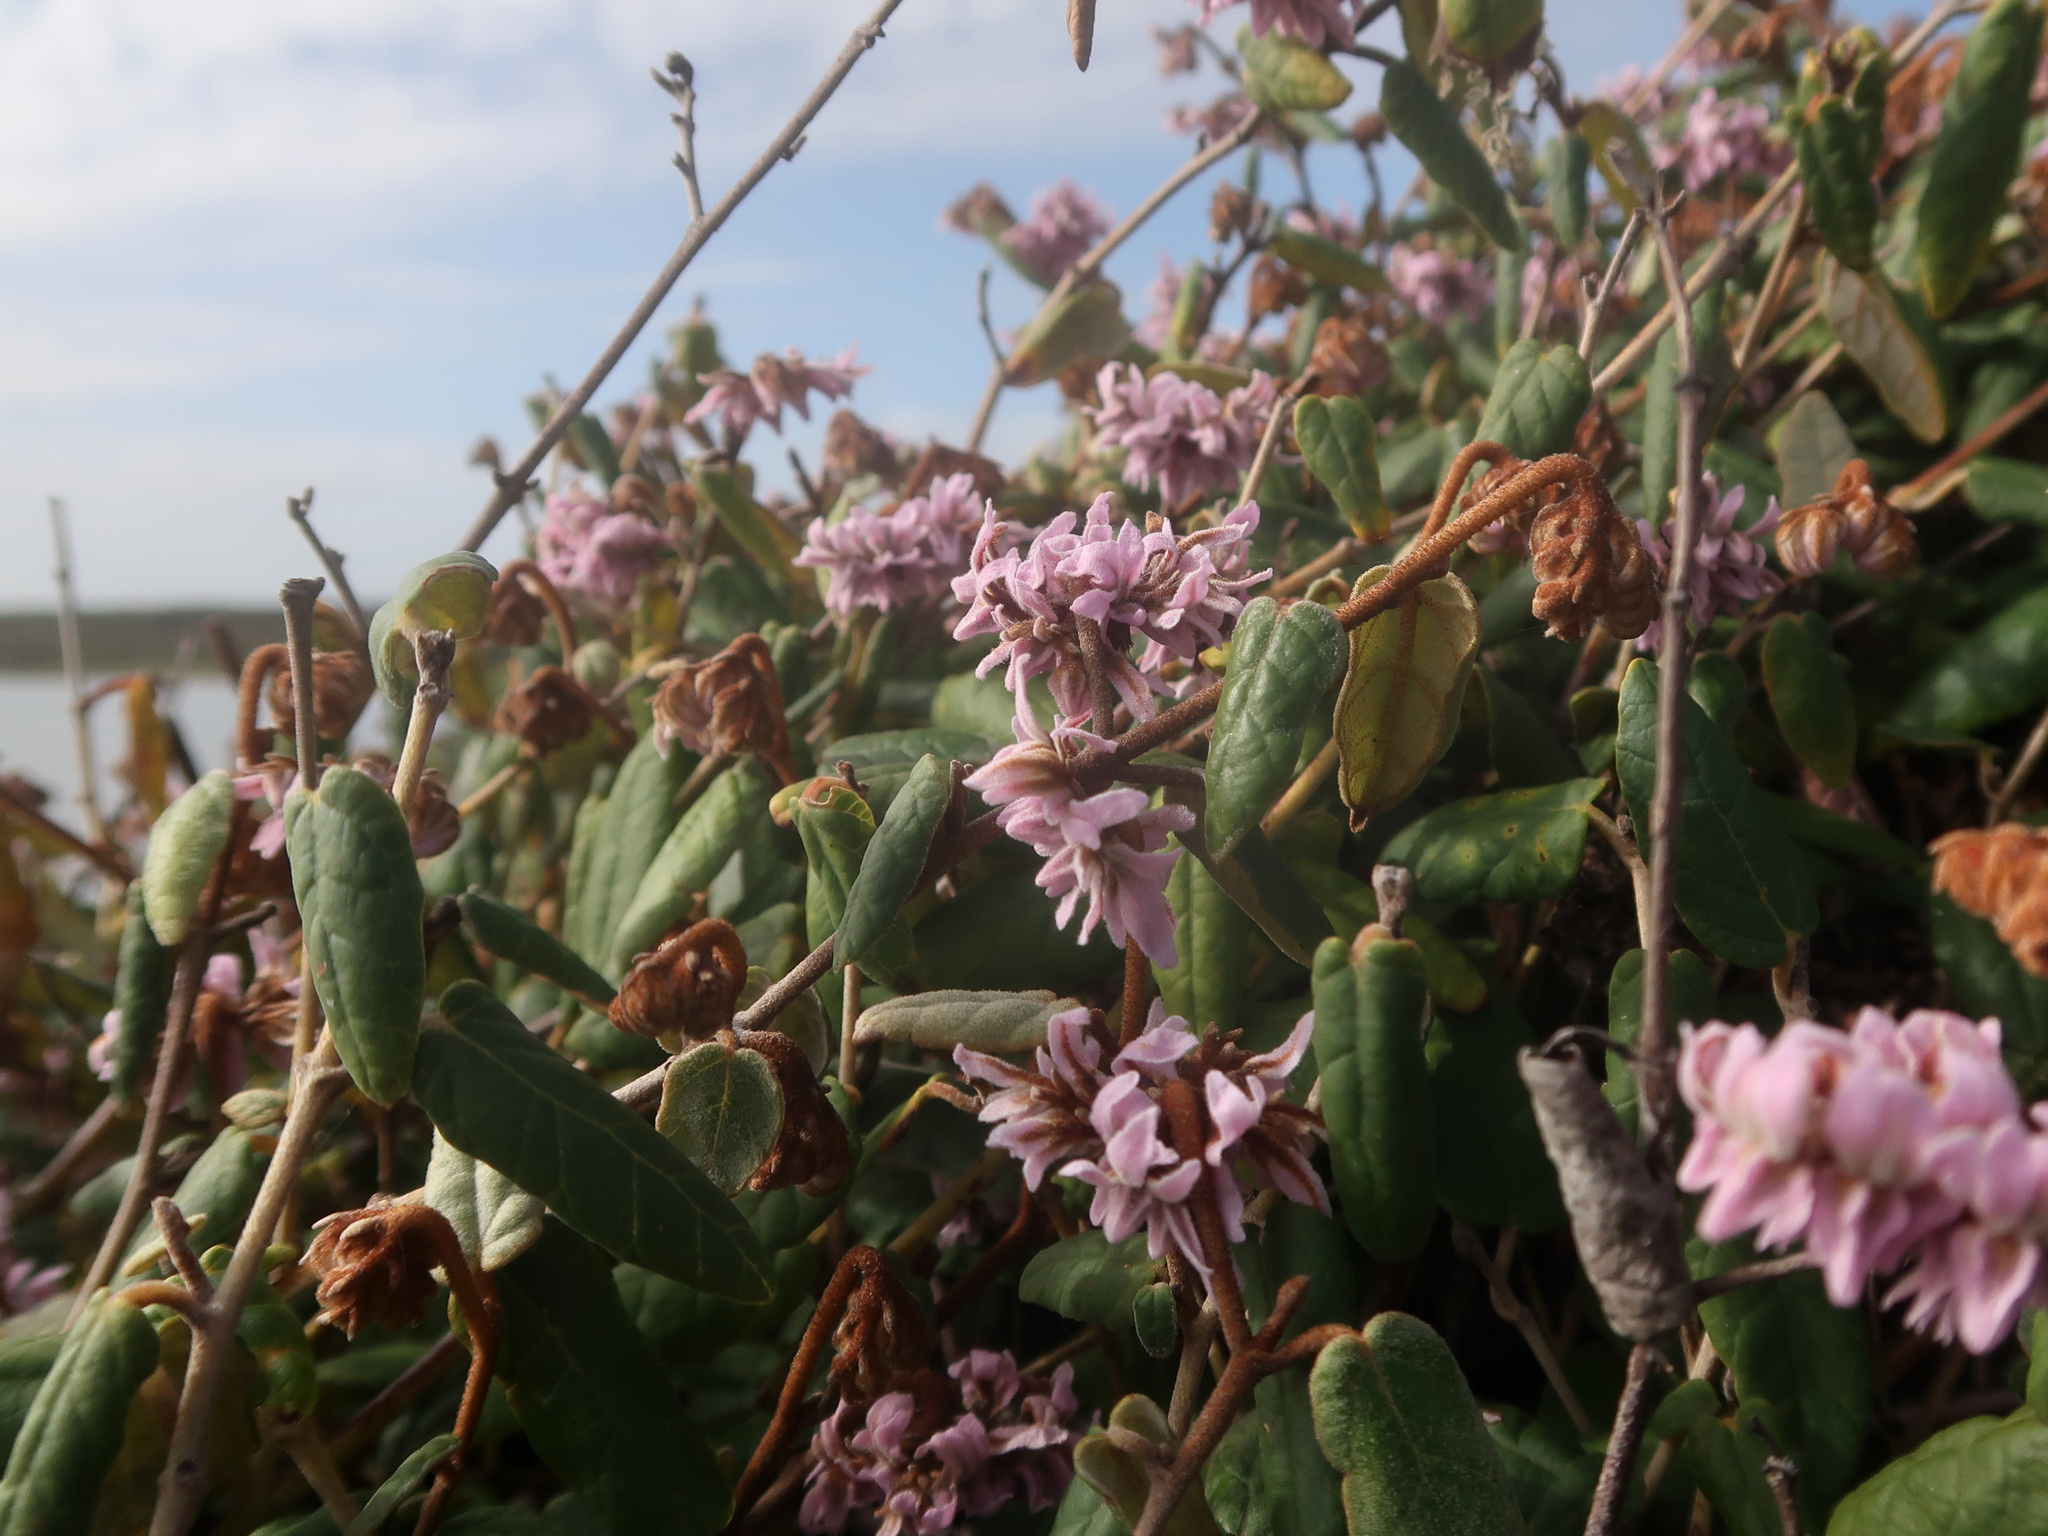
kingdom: Plantae
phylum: Tracheophyta
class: Magnoliopsida
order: Malvales
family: Malvaceae
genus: Lasiopetalum
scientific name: Lasiopetalum discolor
